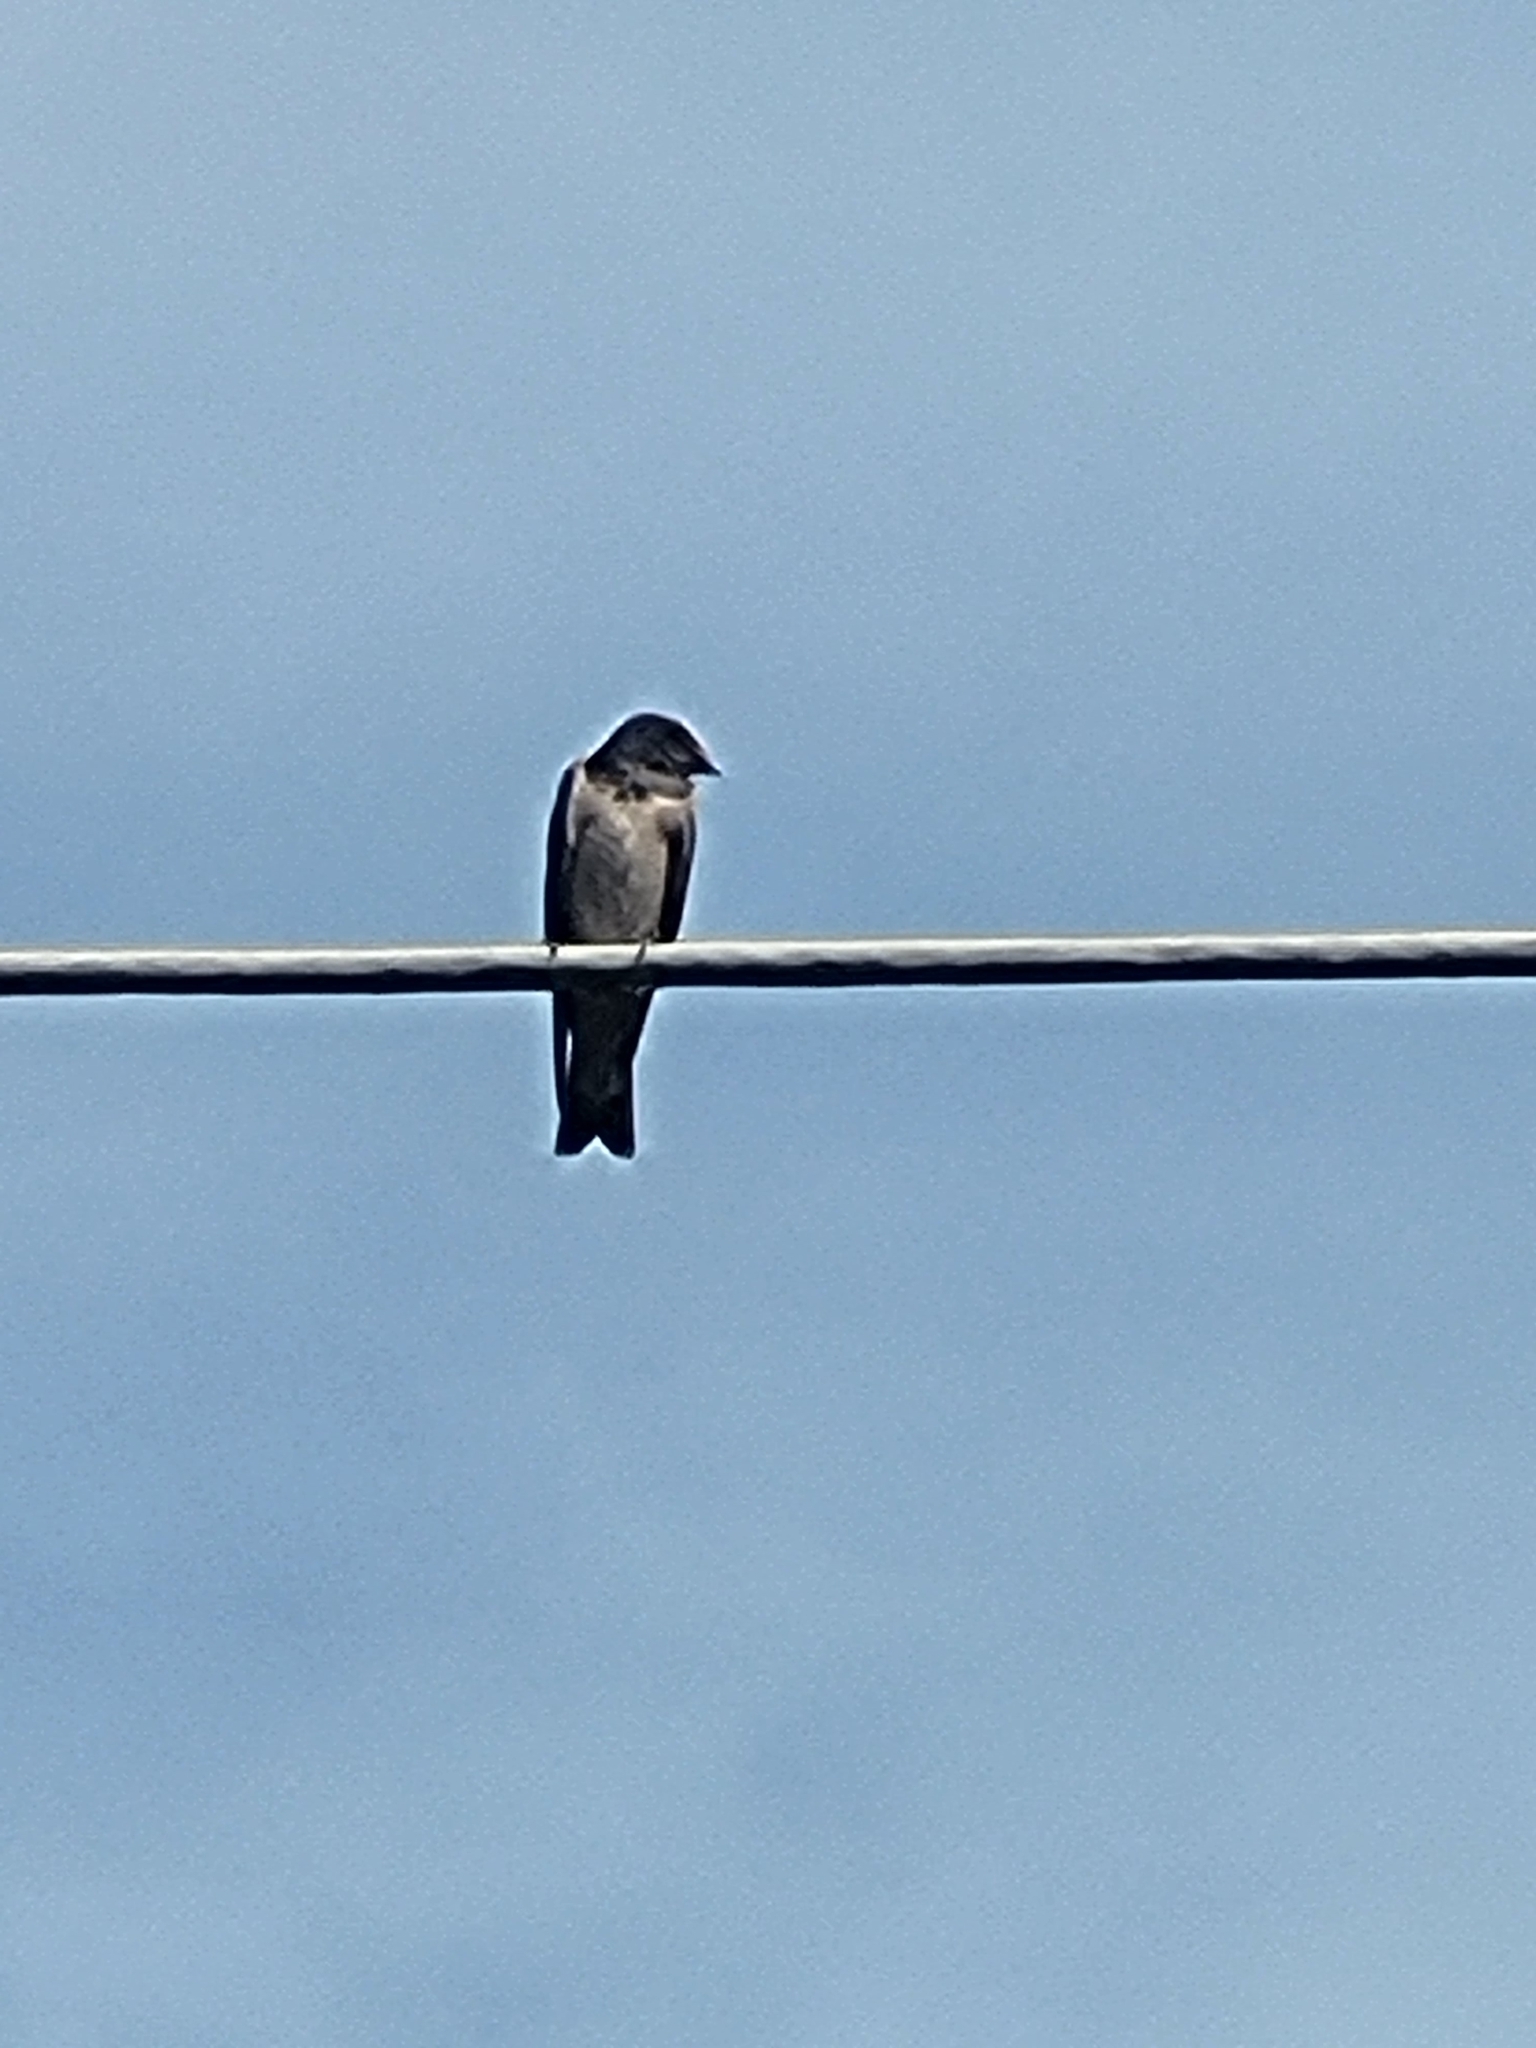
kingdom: Animalia
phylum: Chordata
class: Aves
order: Passeriformes
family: Hirundinidae
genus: Hirundo
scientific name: Hirundo rustica
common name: Barn swallow
